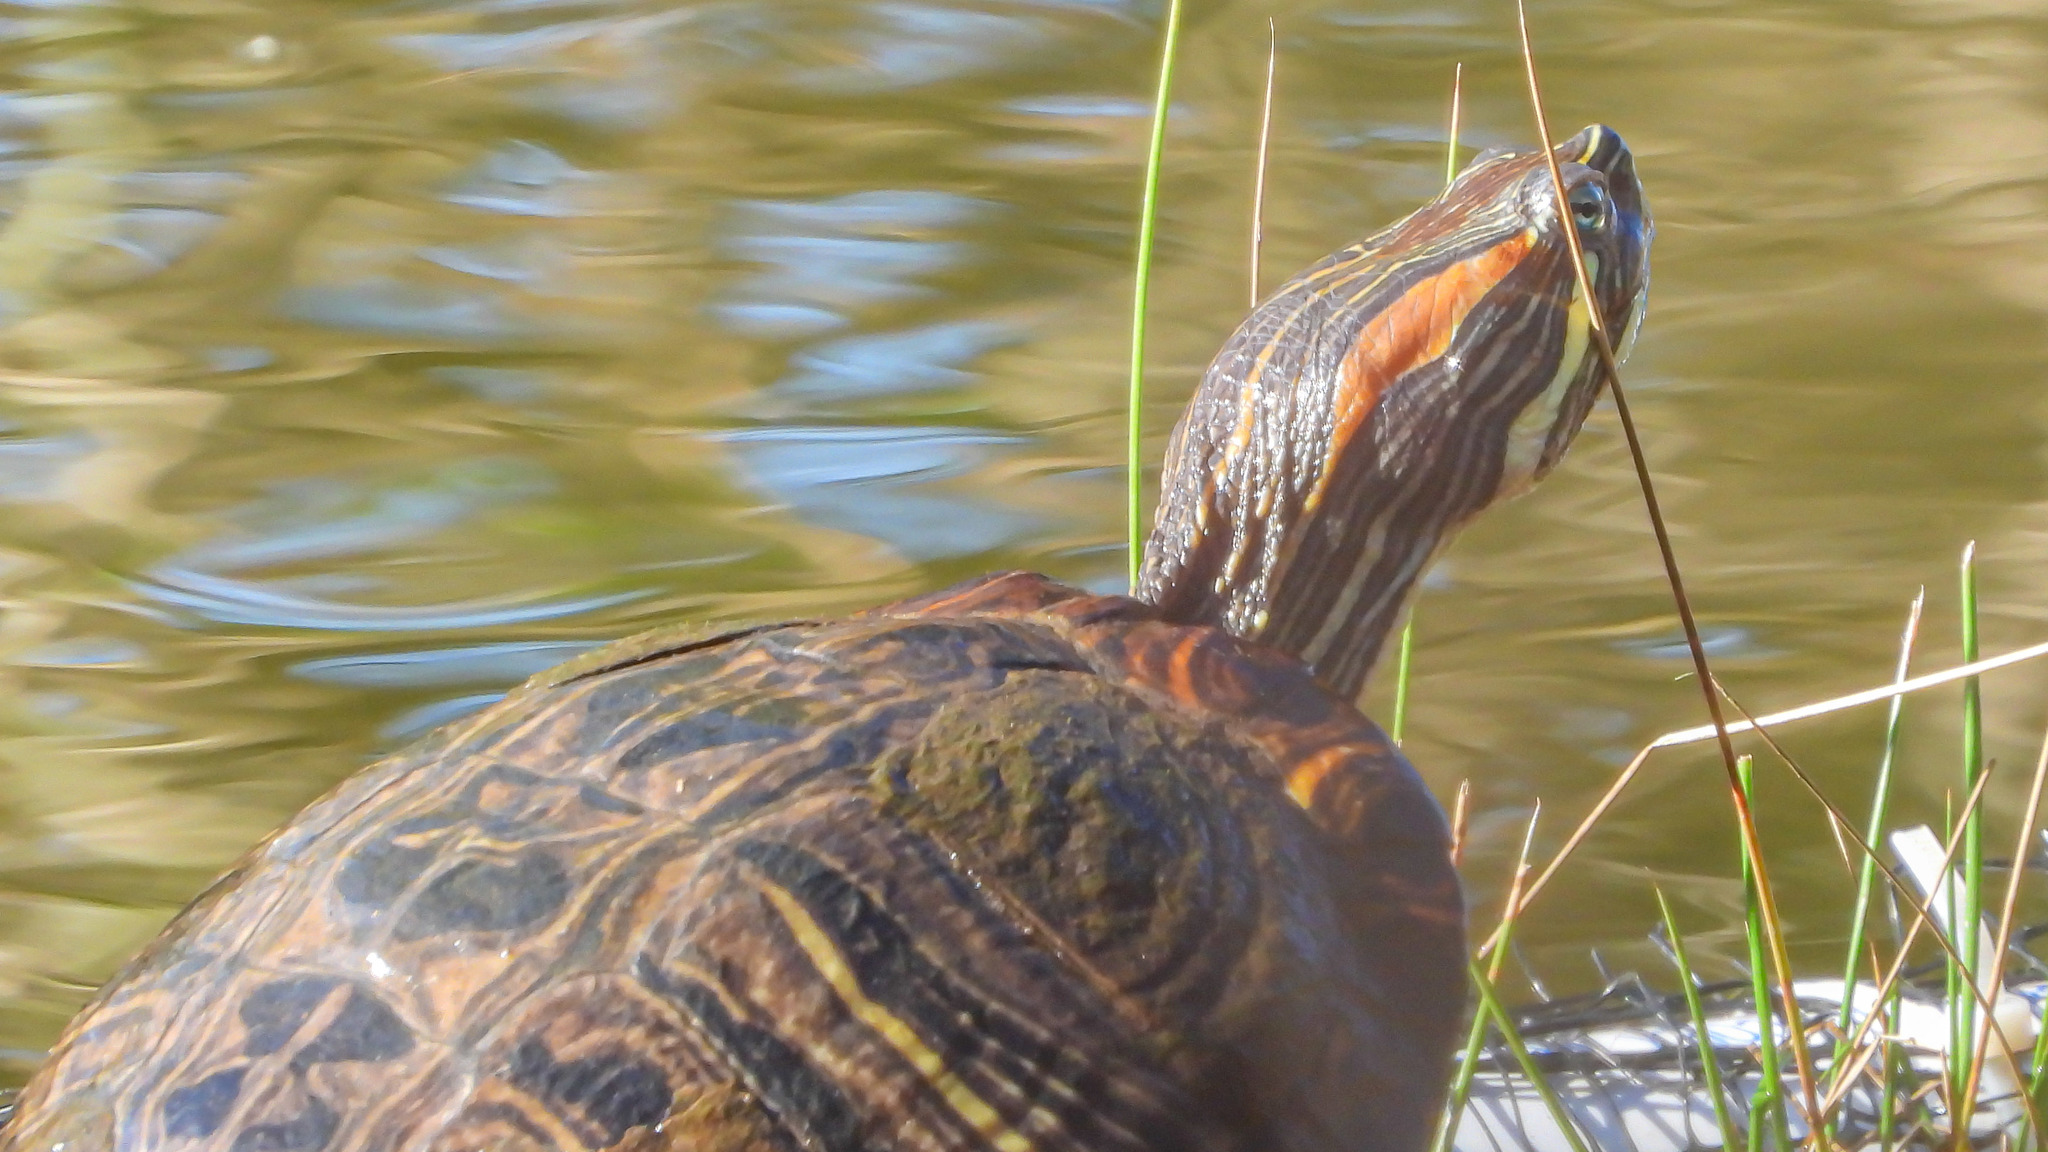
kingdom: Animalia
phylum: Chordata
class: Testudines
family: Emydidae
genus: Trachemys
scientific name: Trachemys scripta
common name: Slider
